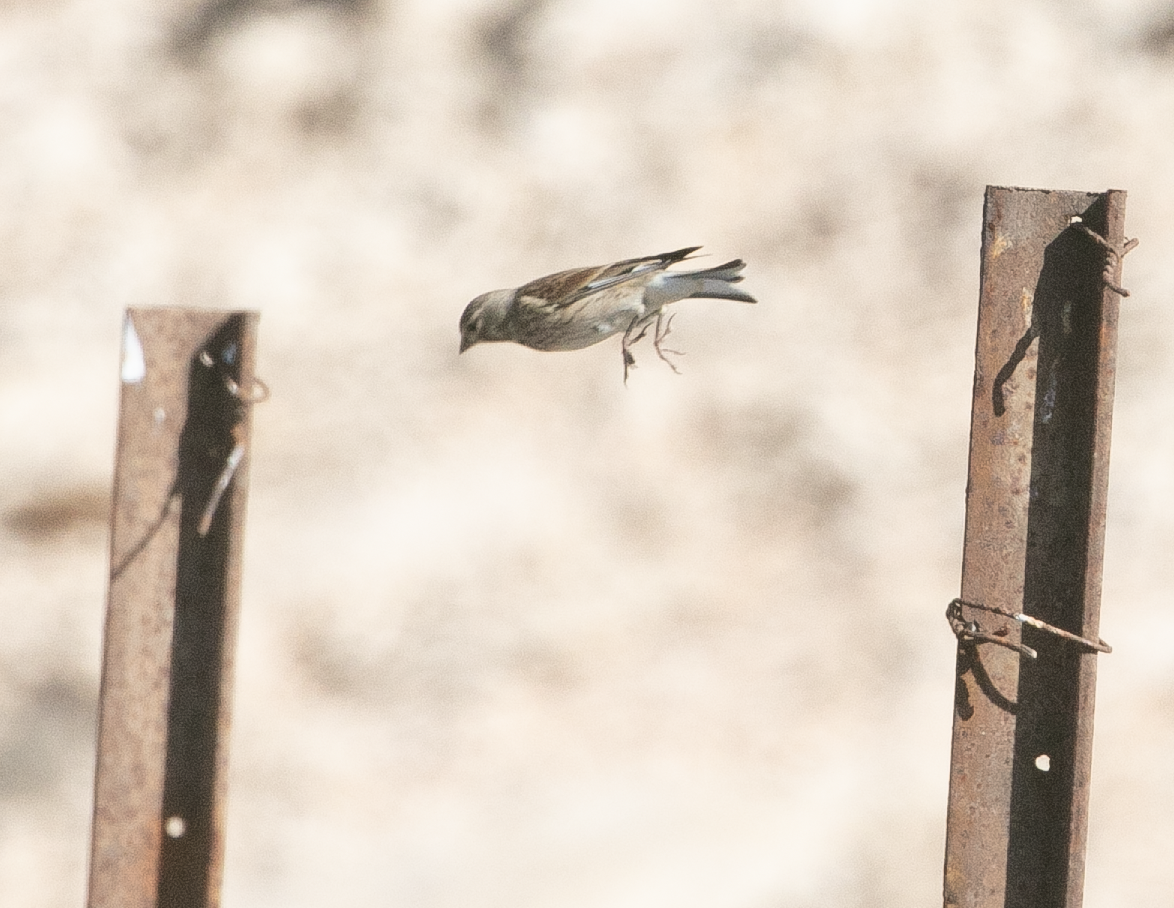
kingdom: Animalia
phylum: Chordata
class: Aves
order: Passeriformes
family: Fringillidae
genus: Linaria
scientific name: Linaria cannabina
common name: Common linnet
